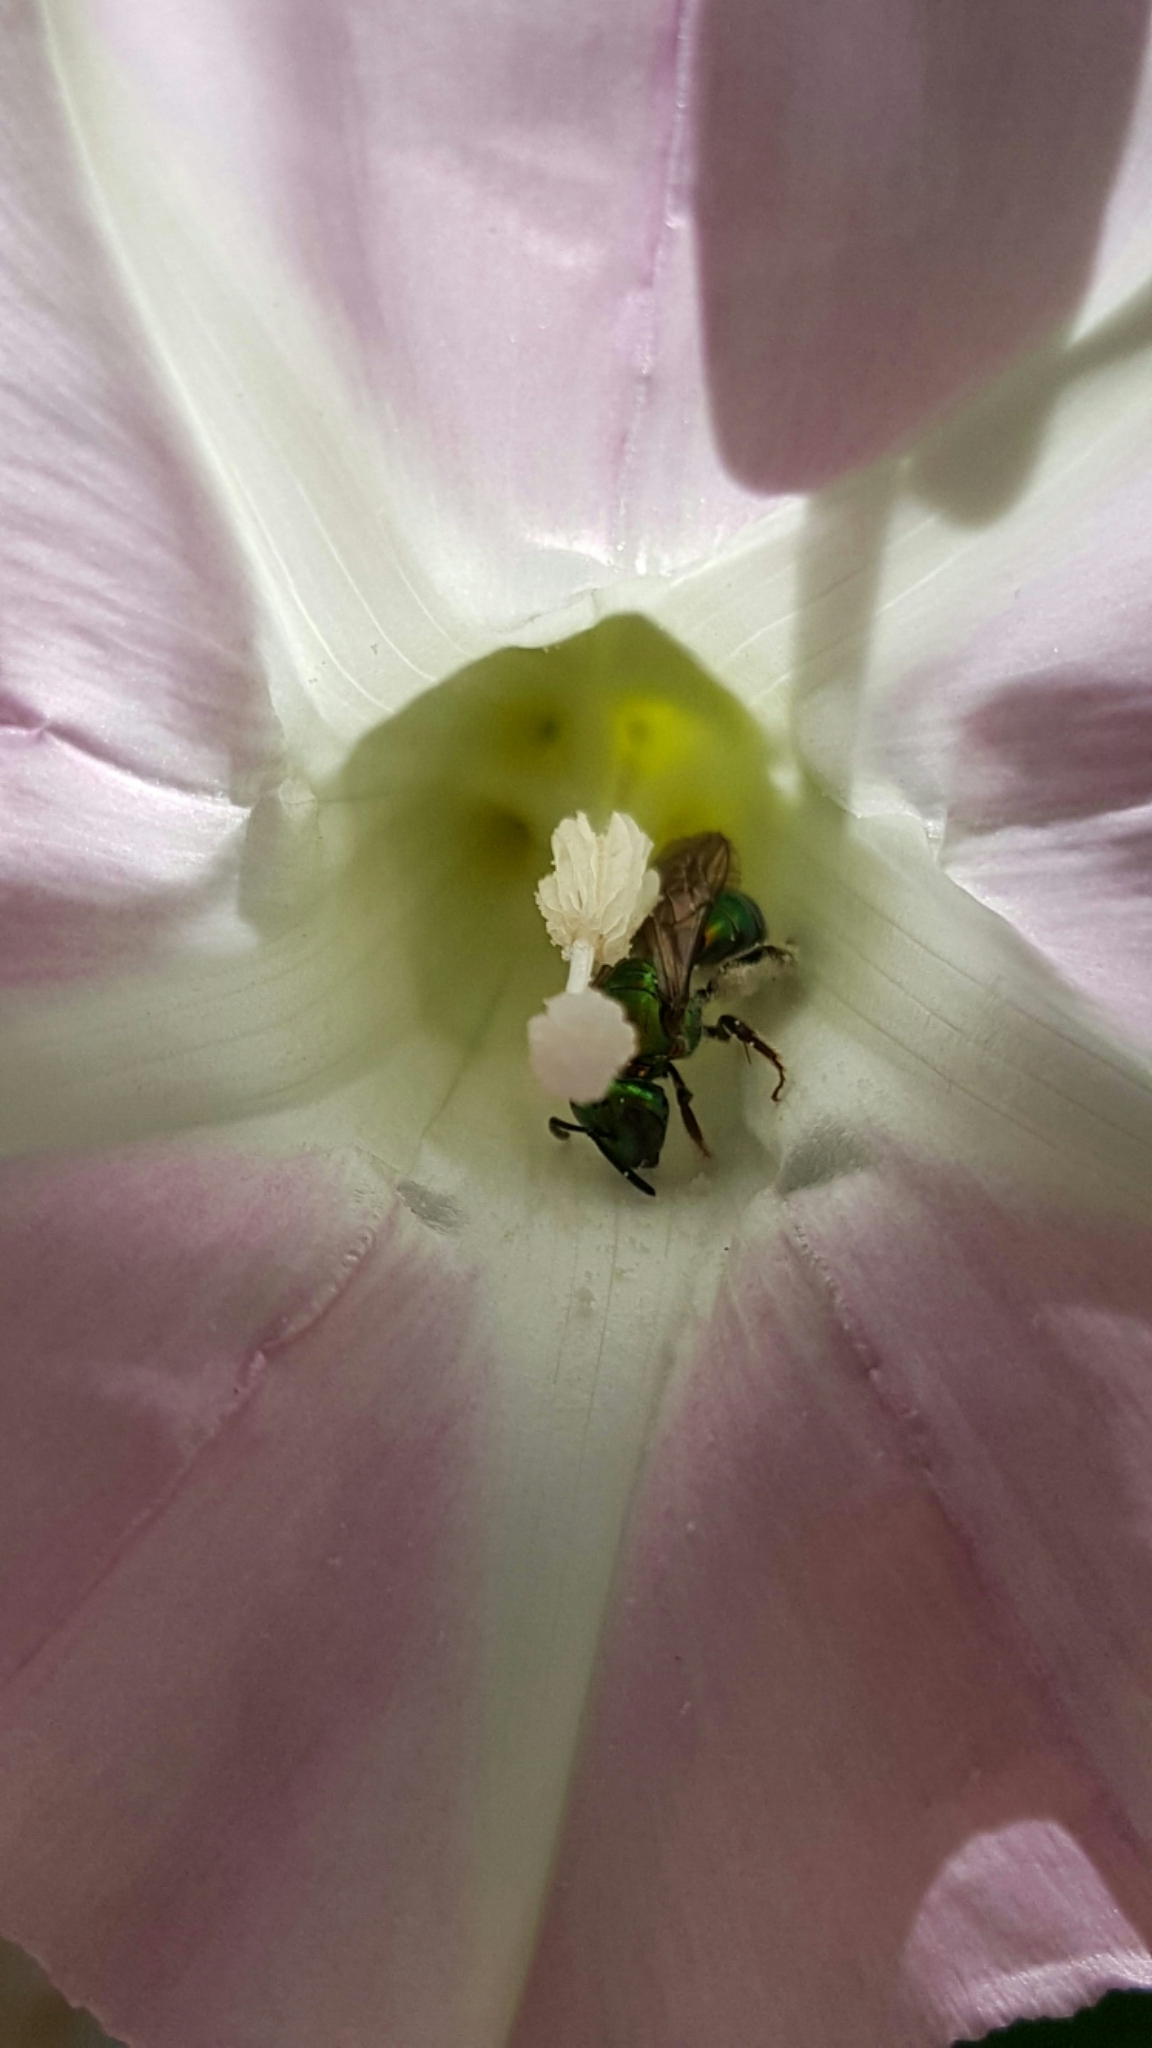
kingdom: Animalia
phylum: Arthropoda
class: Insecta
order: Hymenoptera
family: Halictidae
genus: Augochlora
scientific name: Augochlora pura
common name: Pure green sweat bee
